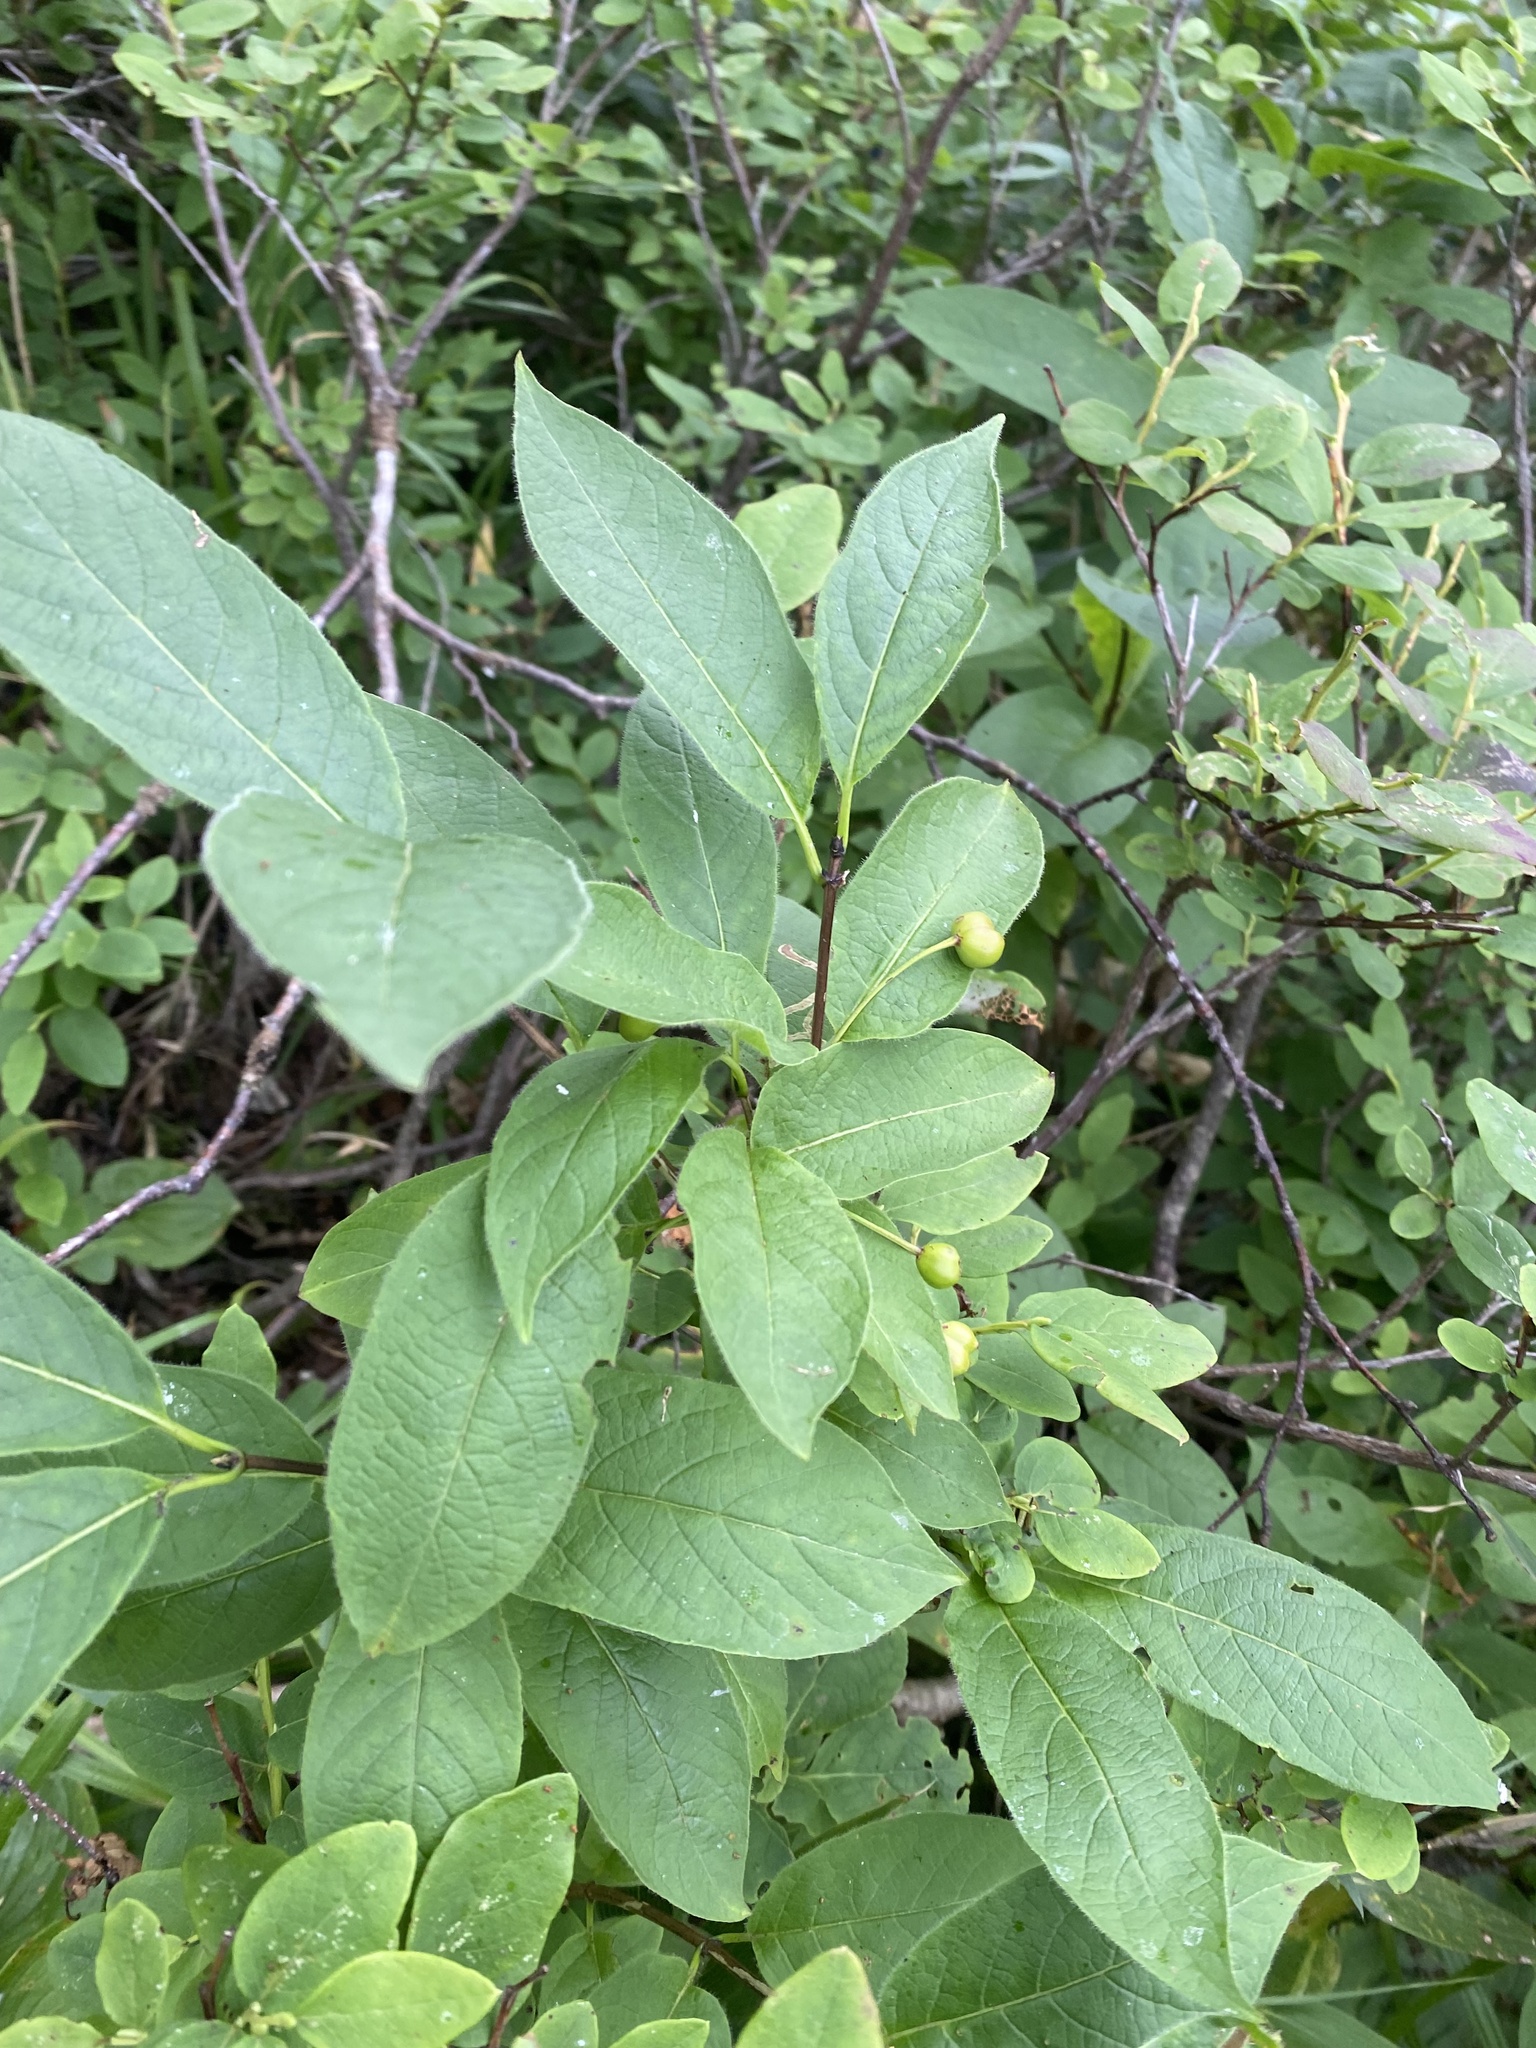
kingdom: Plantae
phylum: Tracheophyta
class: Magnoliopsida
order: Dipsacales
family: Caprifoliaceae
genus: Lonicera
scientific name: Lonicera glehnii
